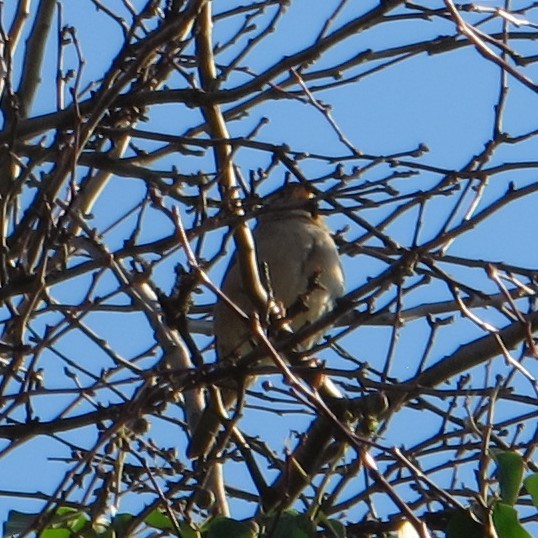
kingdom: Animalia
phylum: Chordata
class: Aves
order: Passeriformes
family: Passeridae
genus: Passer
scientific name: Passer domesticus
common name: House sparrow
